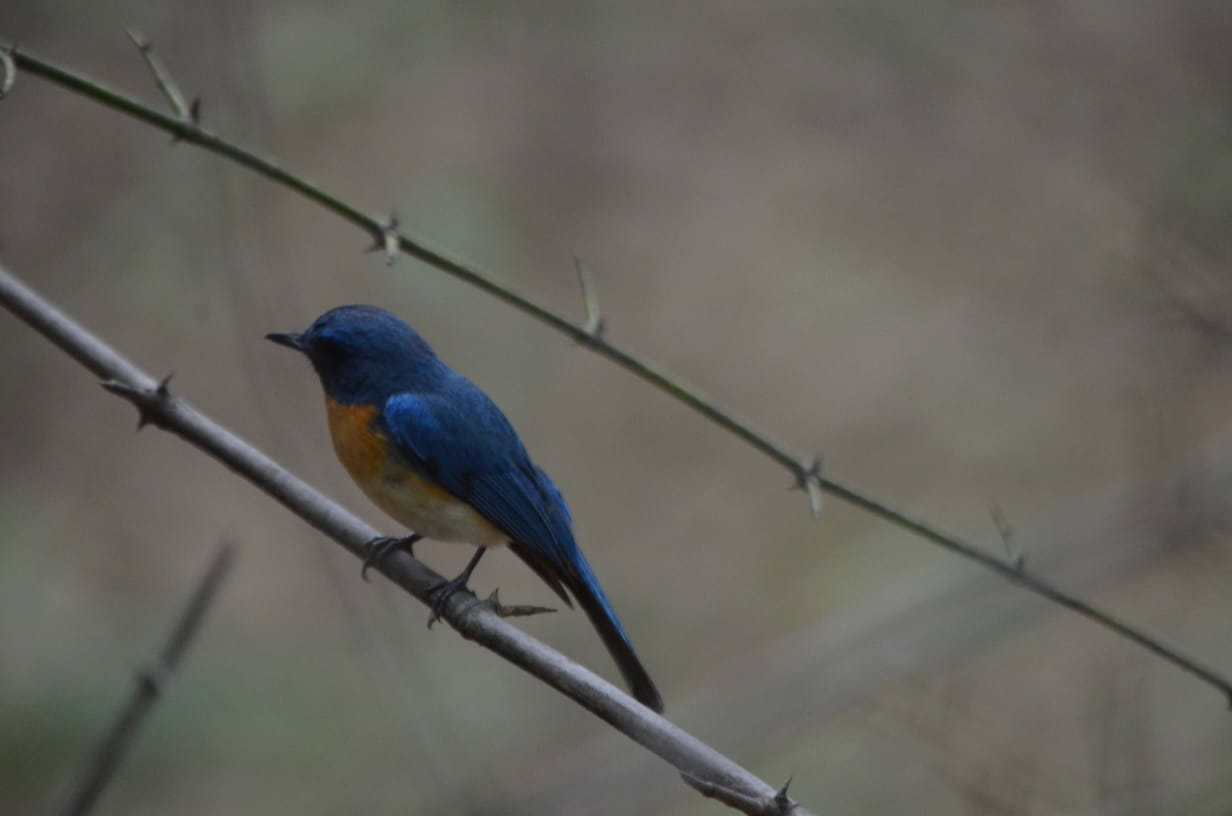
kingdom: Animalia
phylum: Chordata
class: Aves
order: Passeriformes
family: Muscicapidae
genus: Cyornis
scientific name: Cyornis tickelliae
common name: Tickell's blue flycatcher
